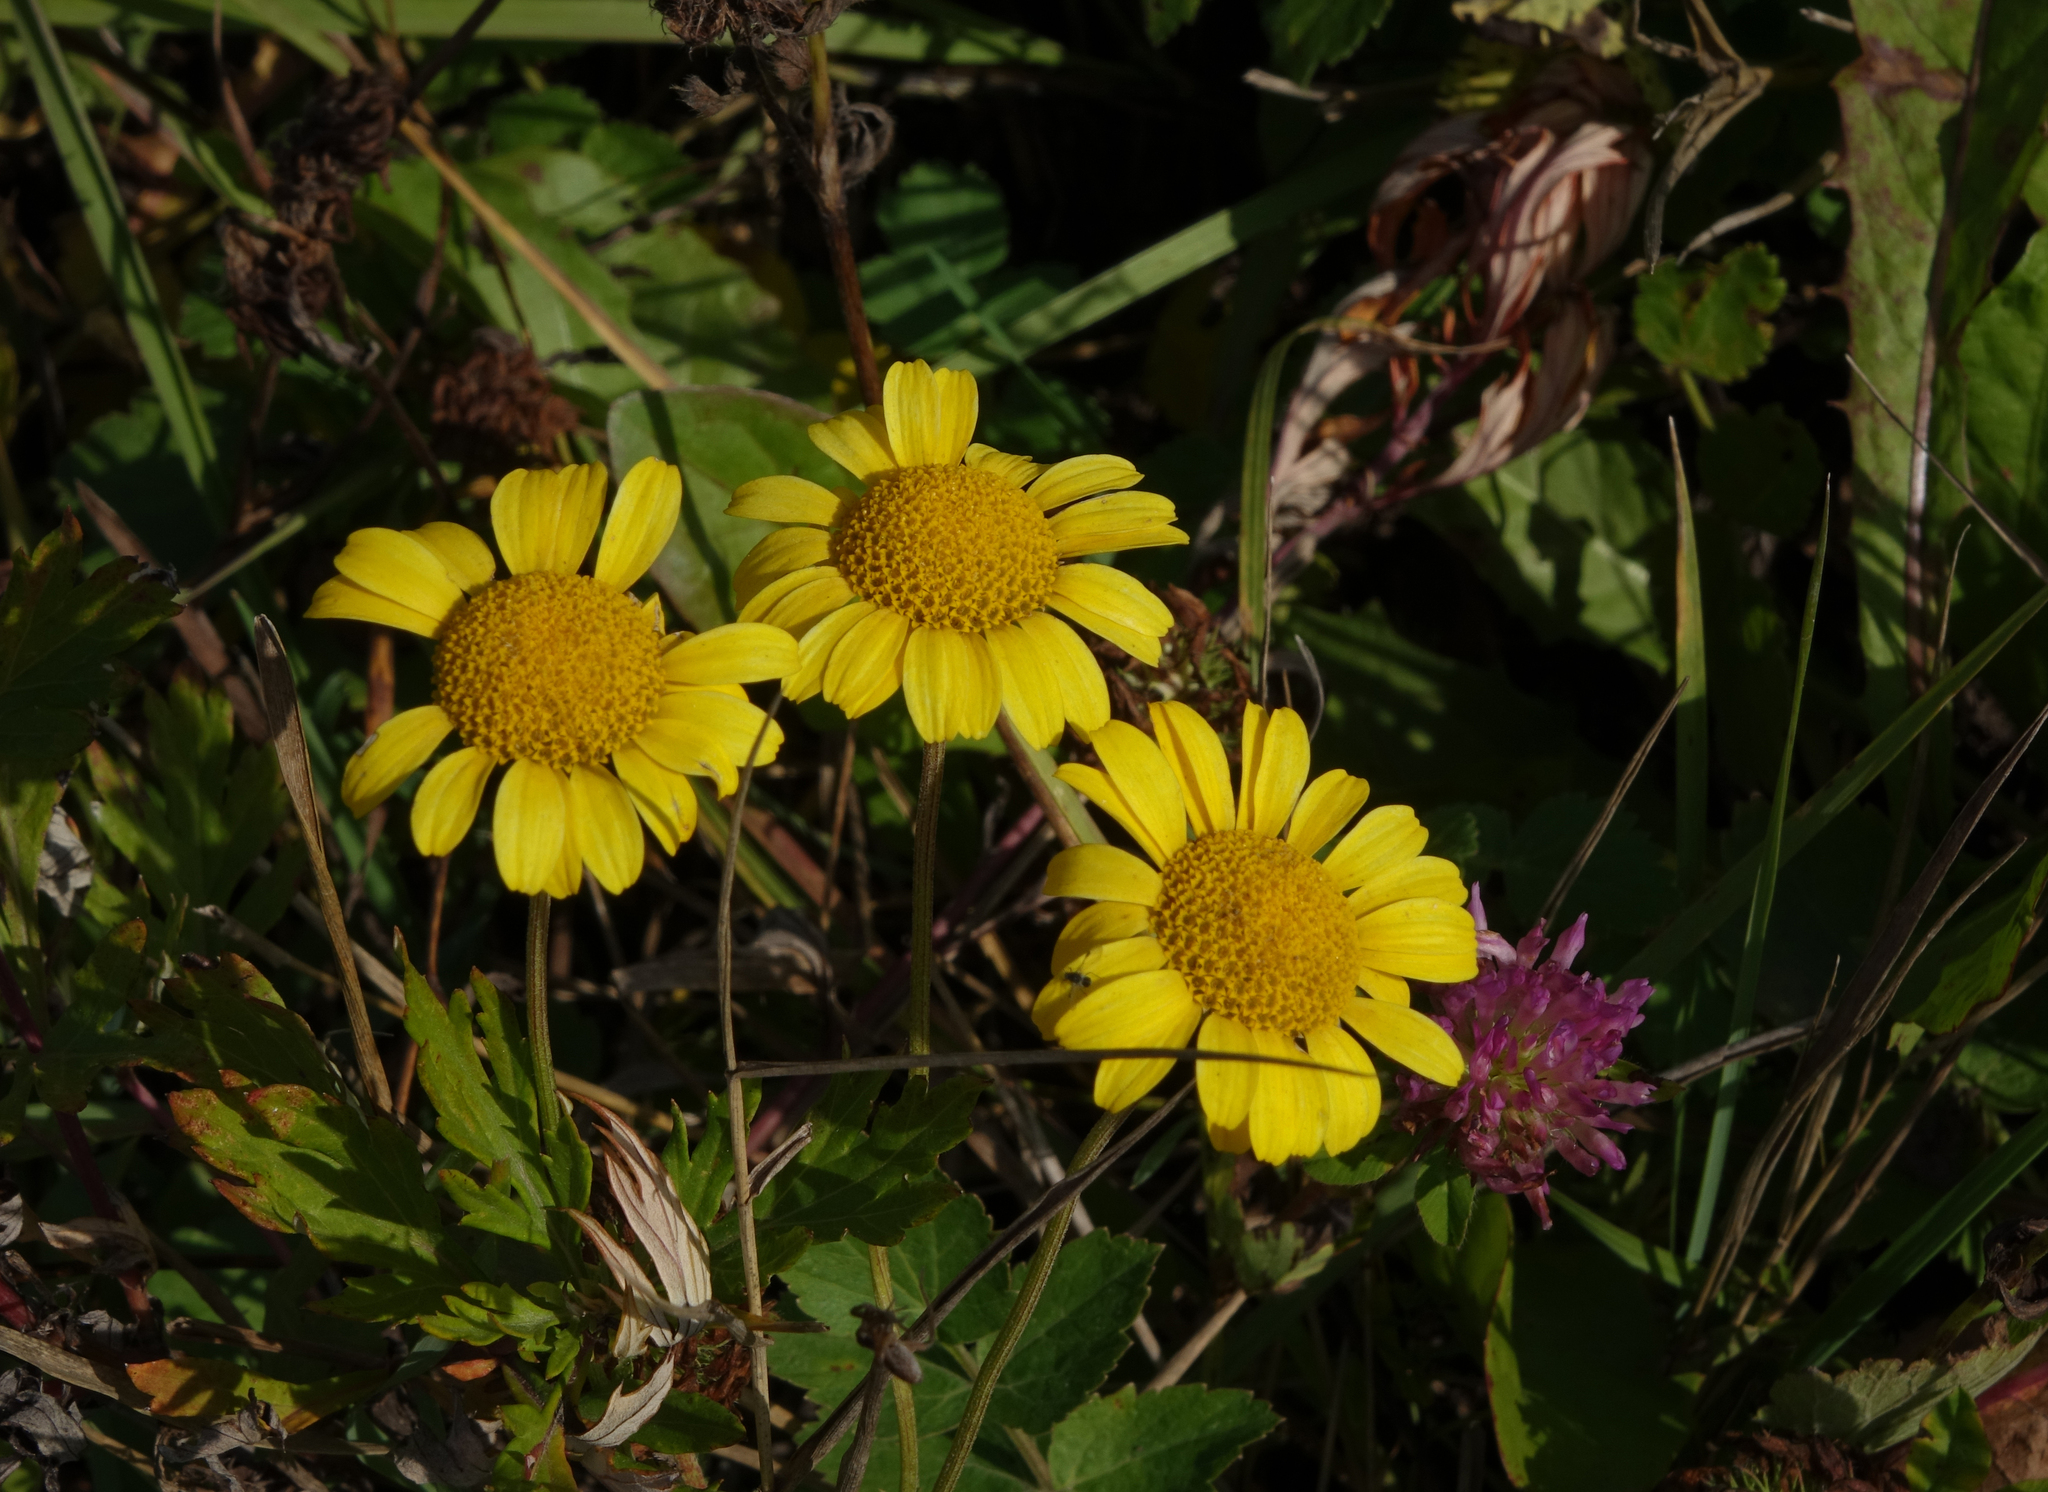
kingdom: Plantae
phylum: Tracheophyta
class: Magnoliopsida
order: Asterales
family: Asteraceae
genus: Cota
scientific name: Cota tinctoria
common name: Golden chamomile
